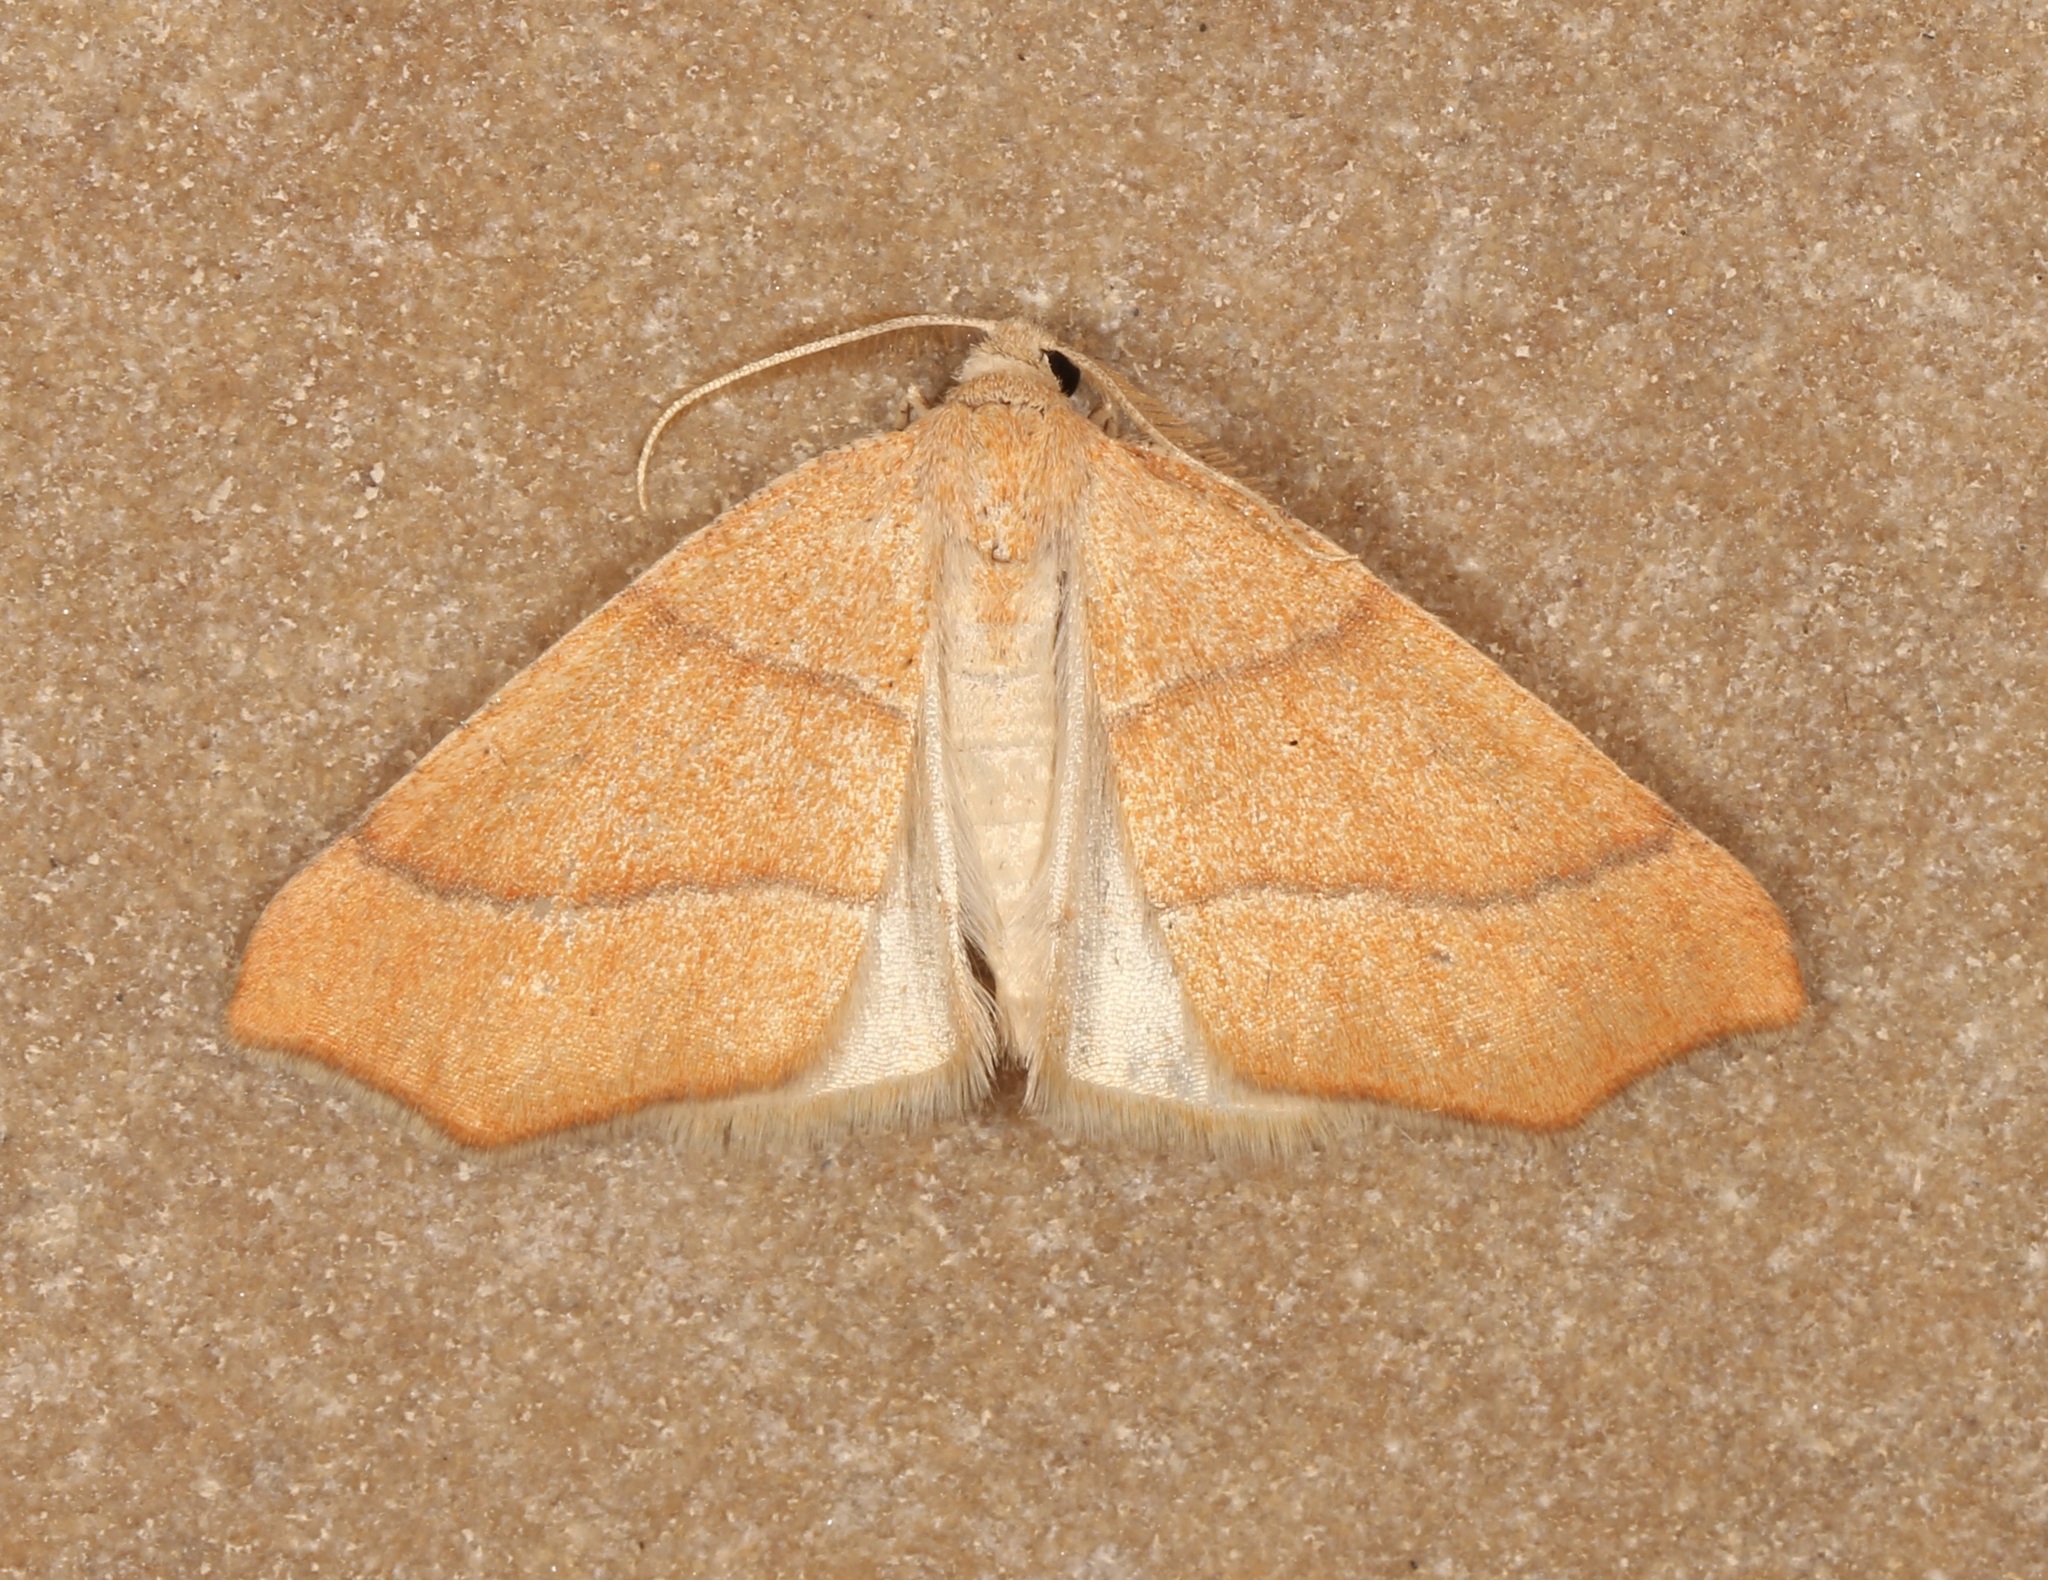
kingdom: Animalia
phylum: Arthropoda
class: Insecta
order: Lepidoptera
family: Geometridae
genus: Destutia
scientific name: Destutia excelsa
